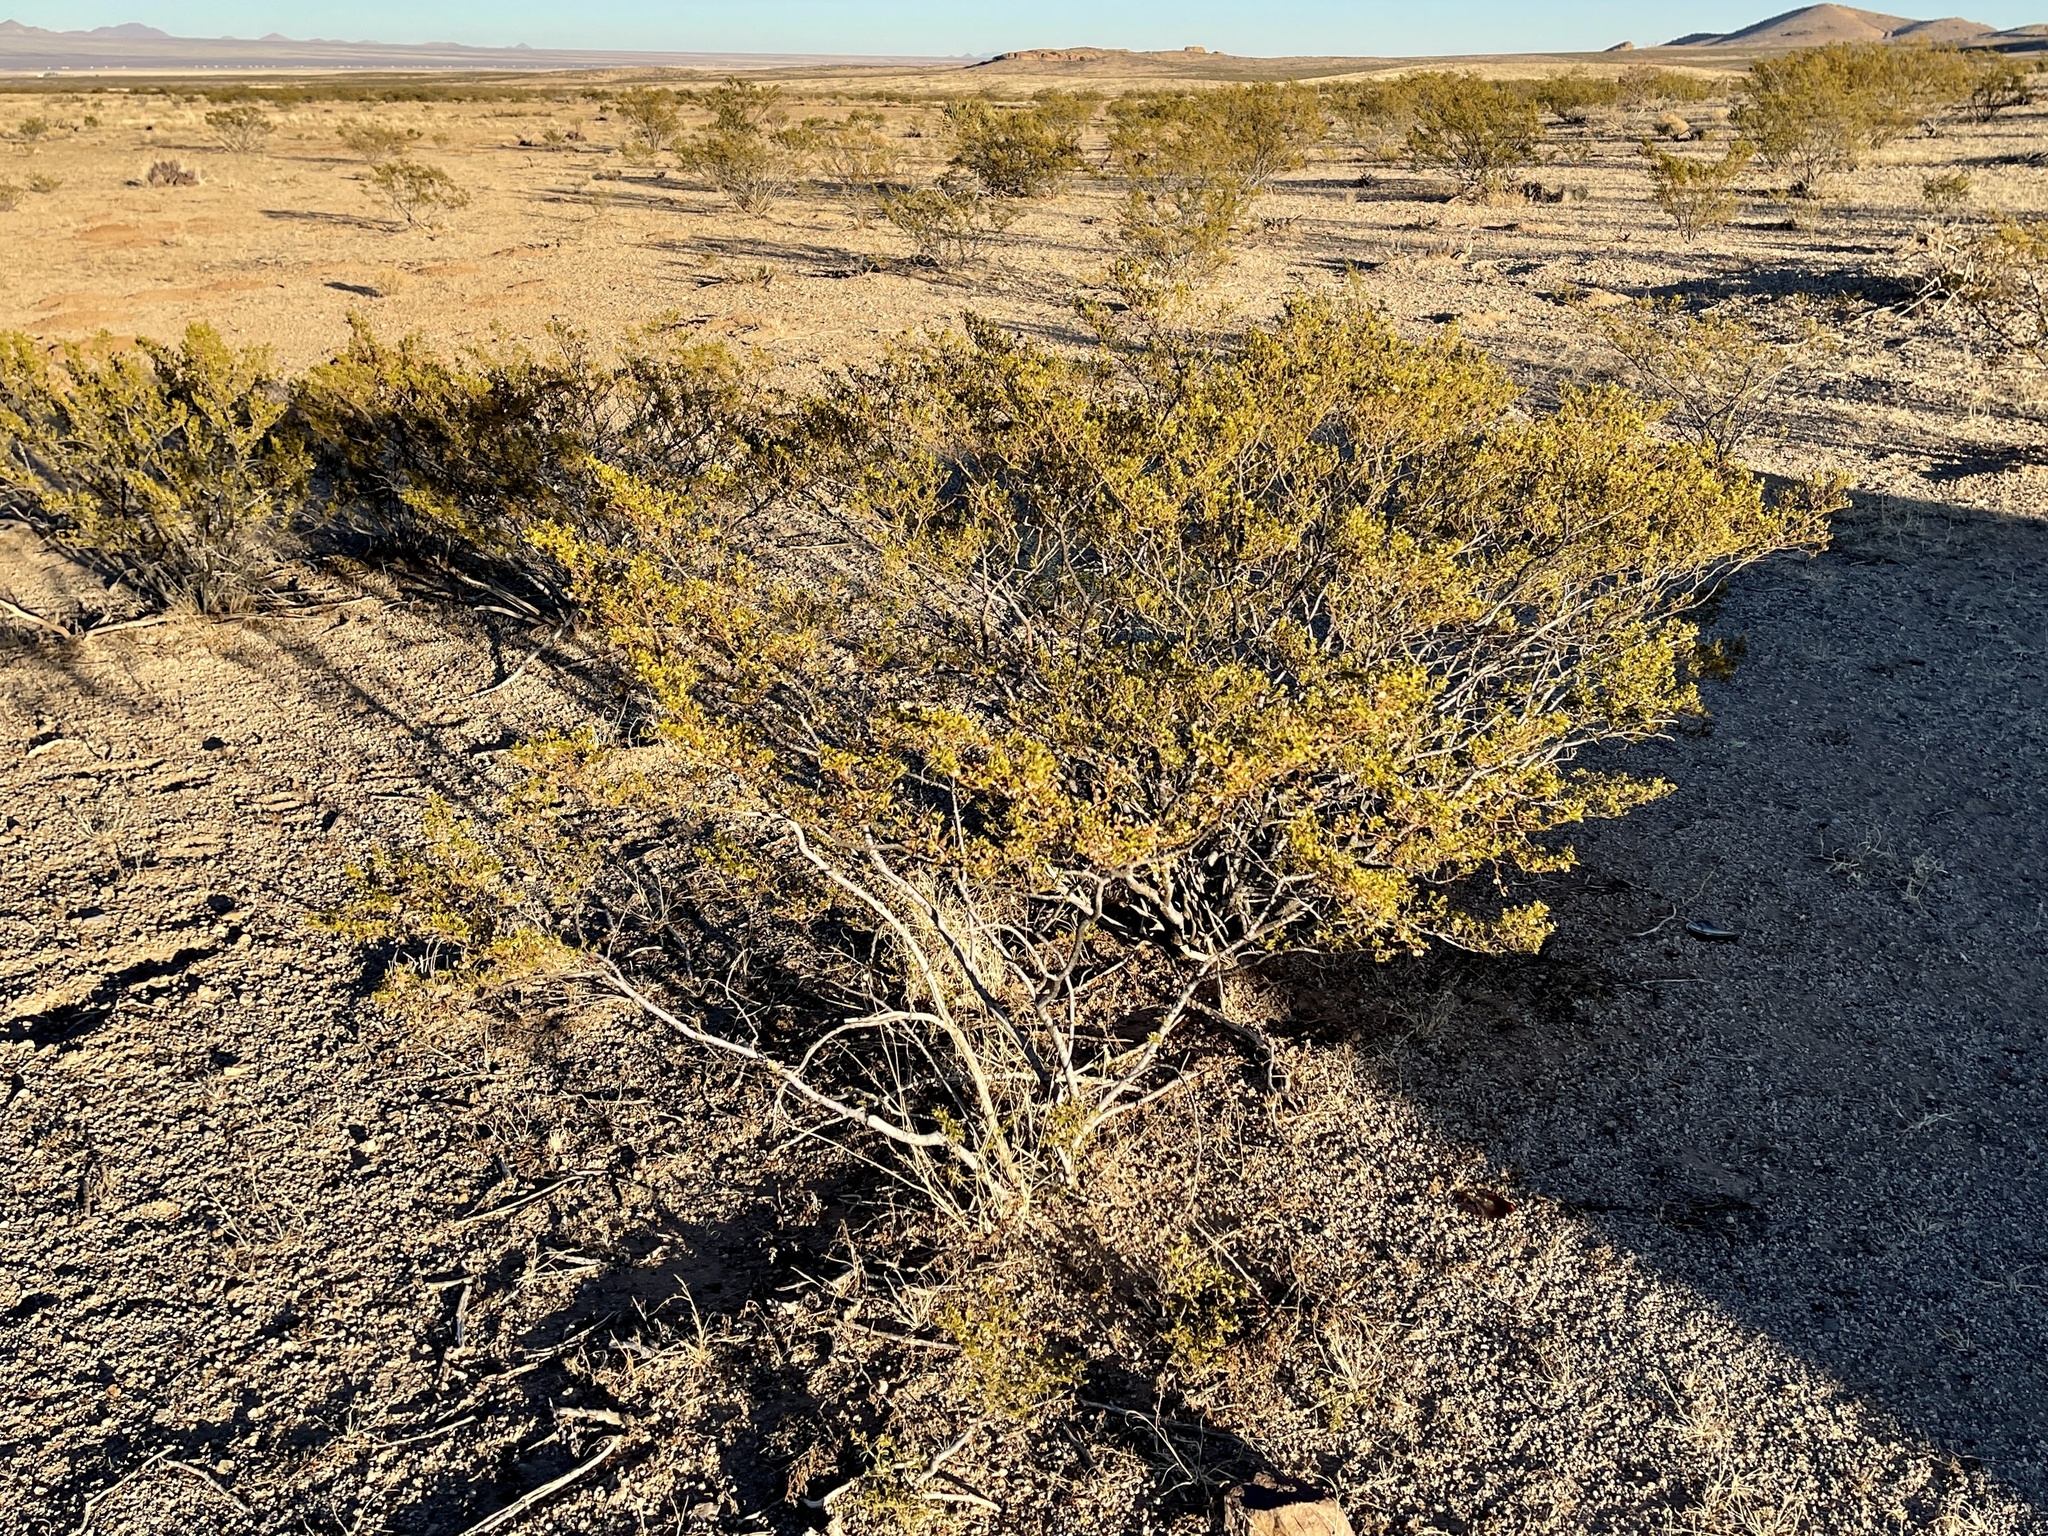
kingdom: Plantae
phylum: Tracheophyta
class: Magnoliopsida
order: Zygophyllales
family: Zygophyllaceae
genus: Larrea
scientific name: Larrea tridentata
